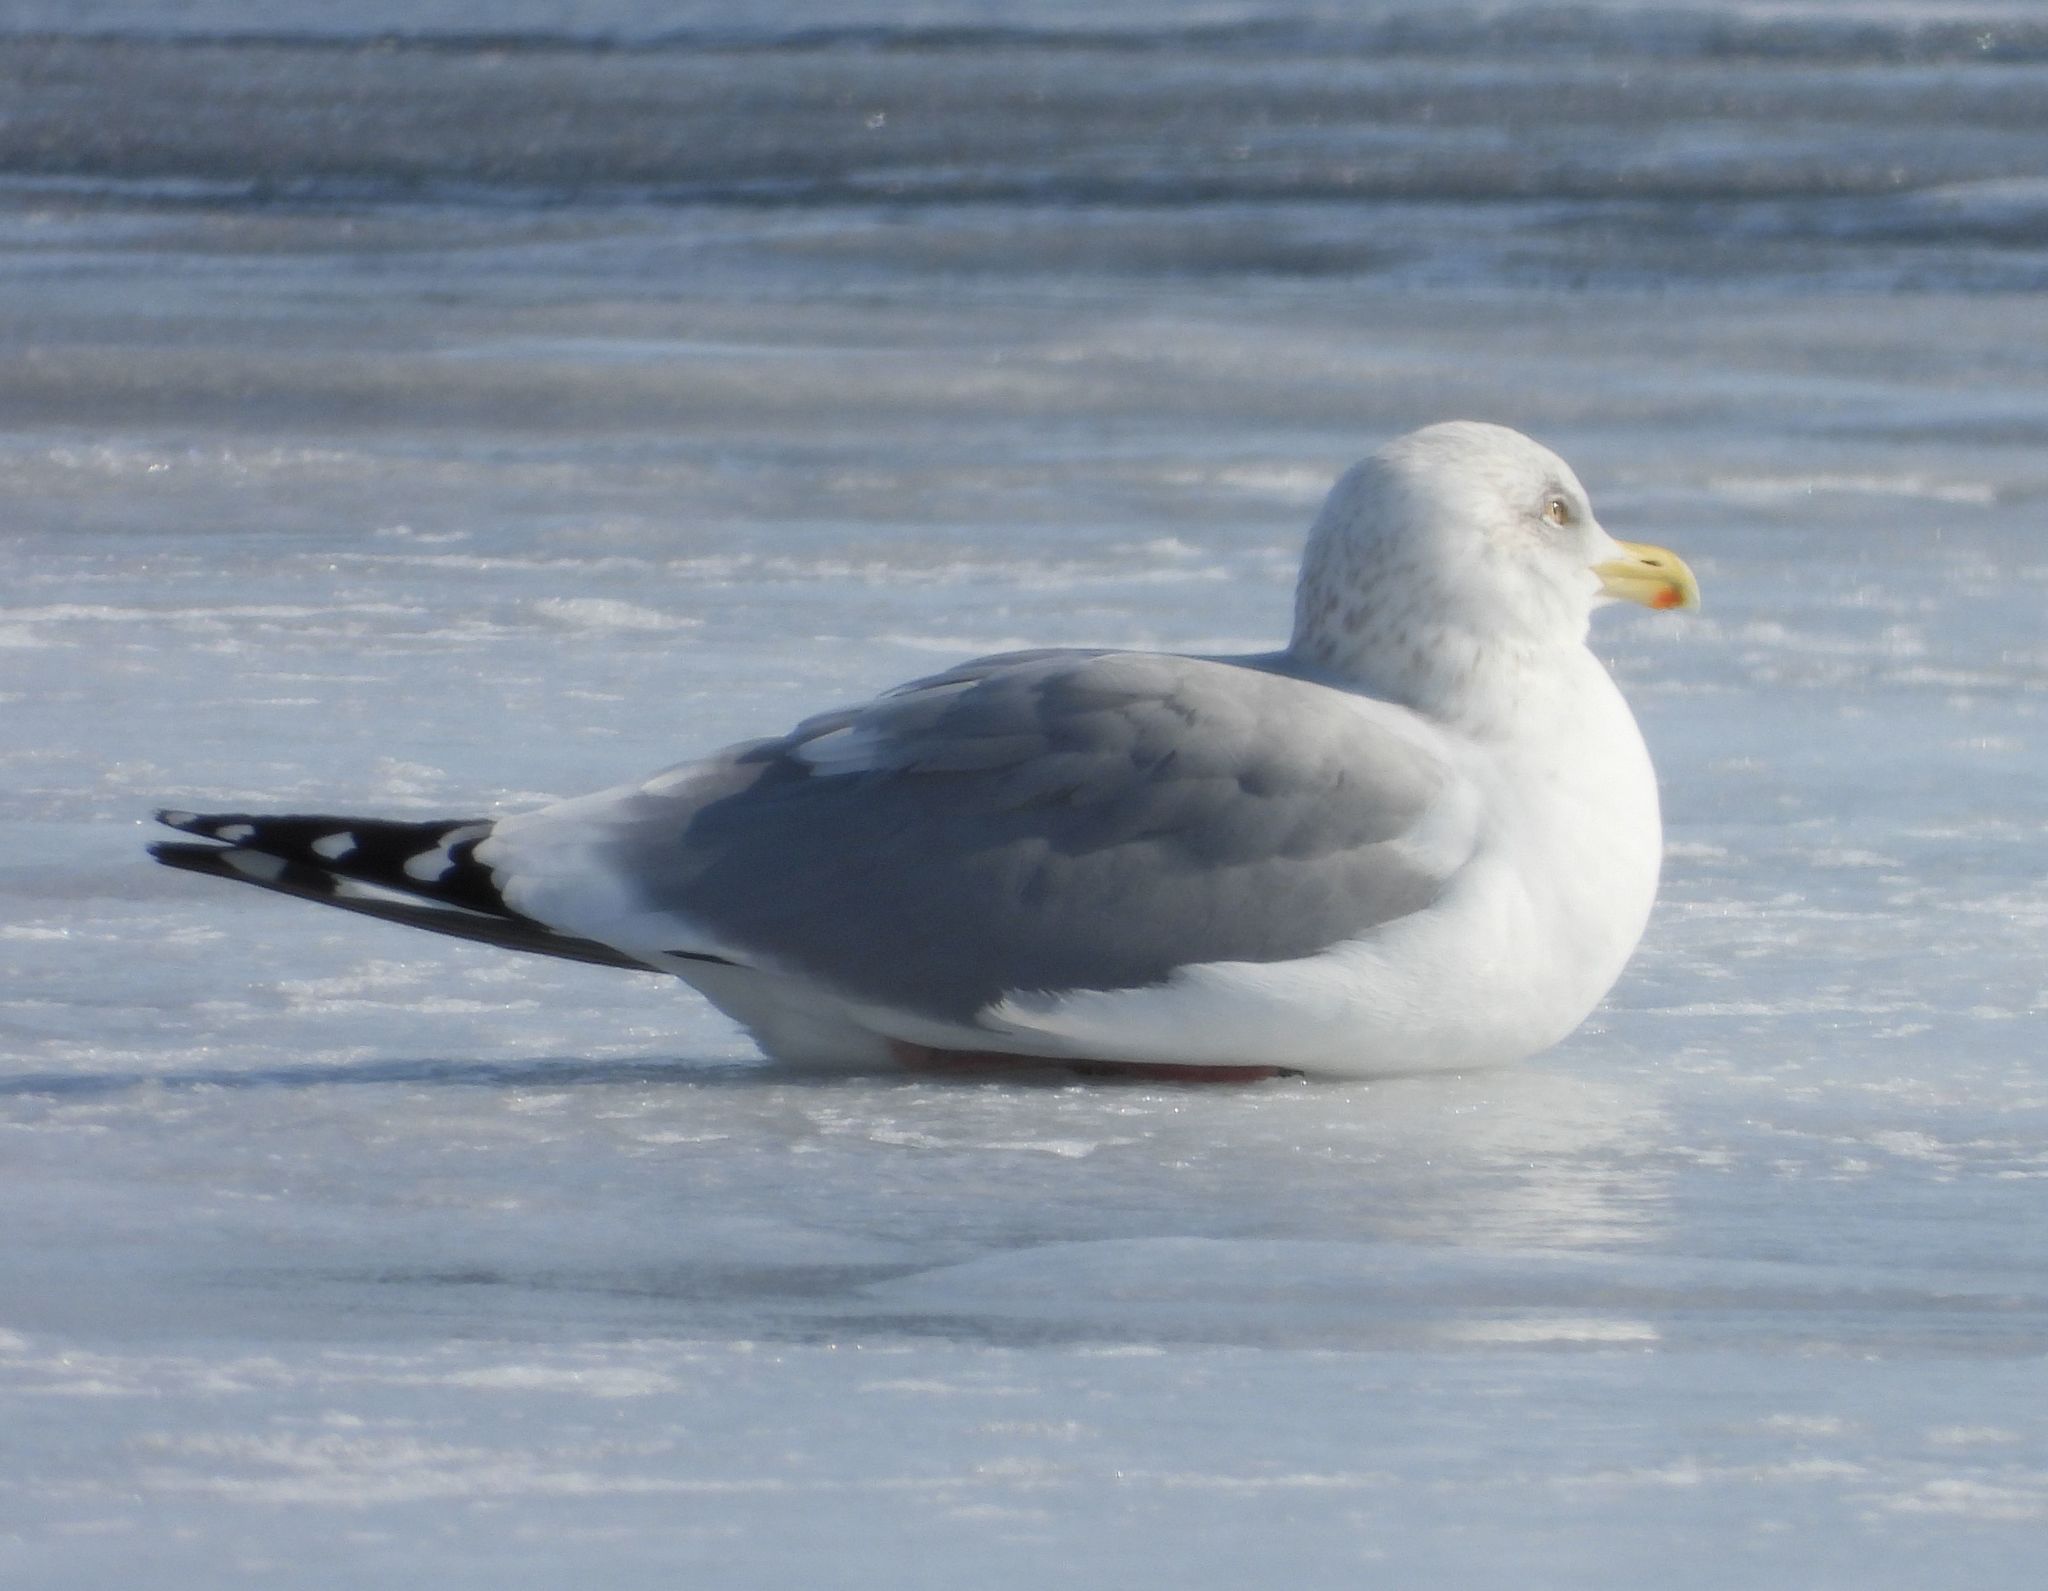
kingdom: Animalia
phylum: Chordata
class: Aves
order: Charadriiformes
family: Laridae
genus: Larus
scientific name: Larus argentatus
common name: Herring gull
